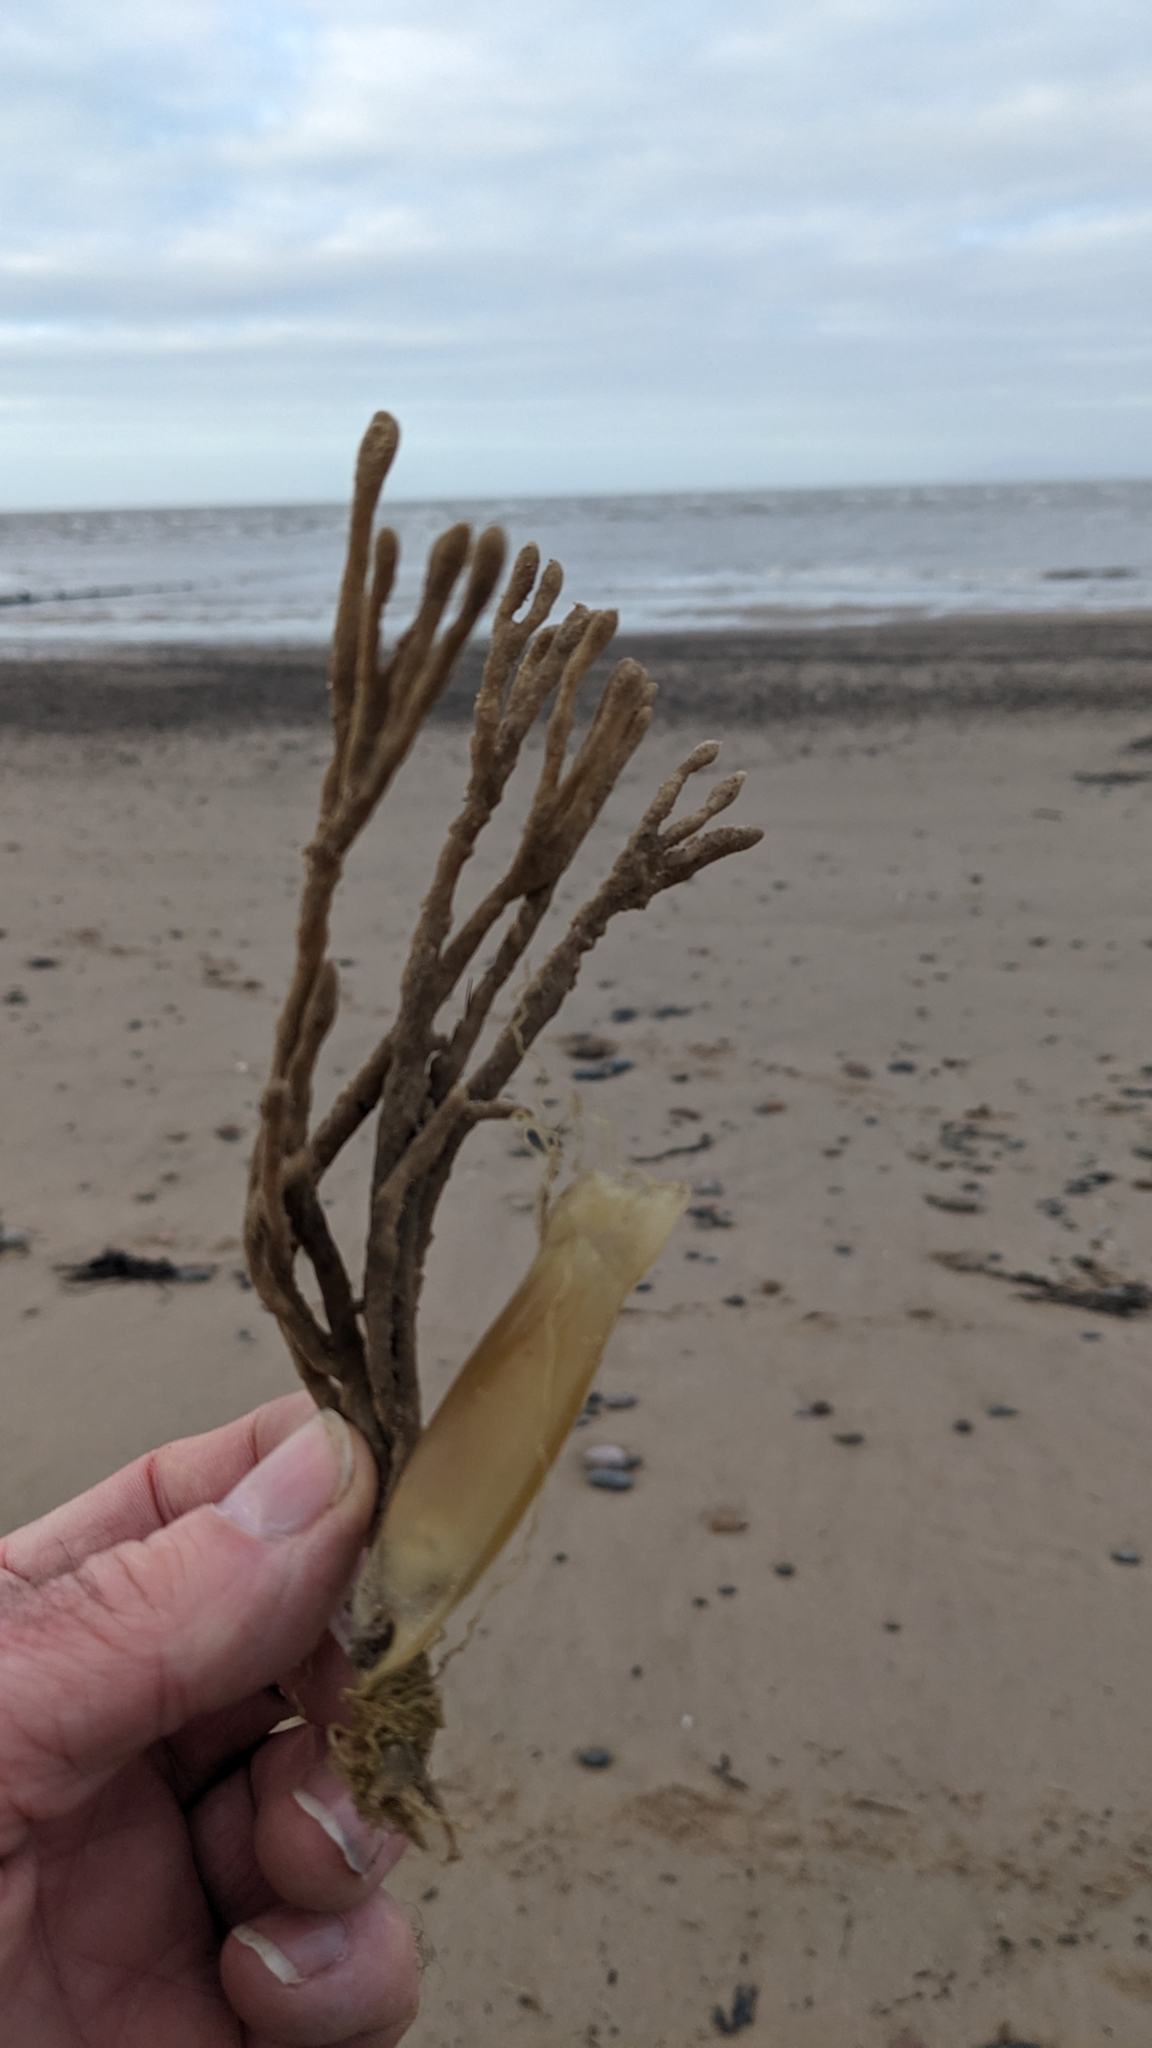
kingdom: Animalia
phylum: Porifera
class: Demospongiae
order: Haplosclerida
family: Chalinidae
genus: Haliclona
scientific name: Haliclona oculata
